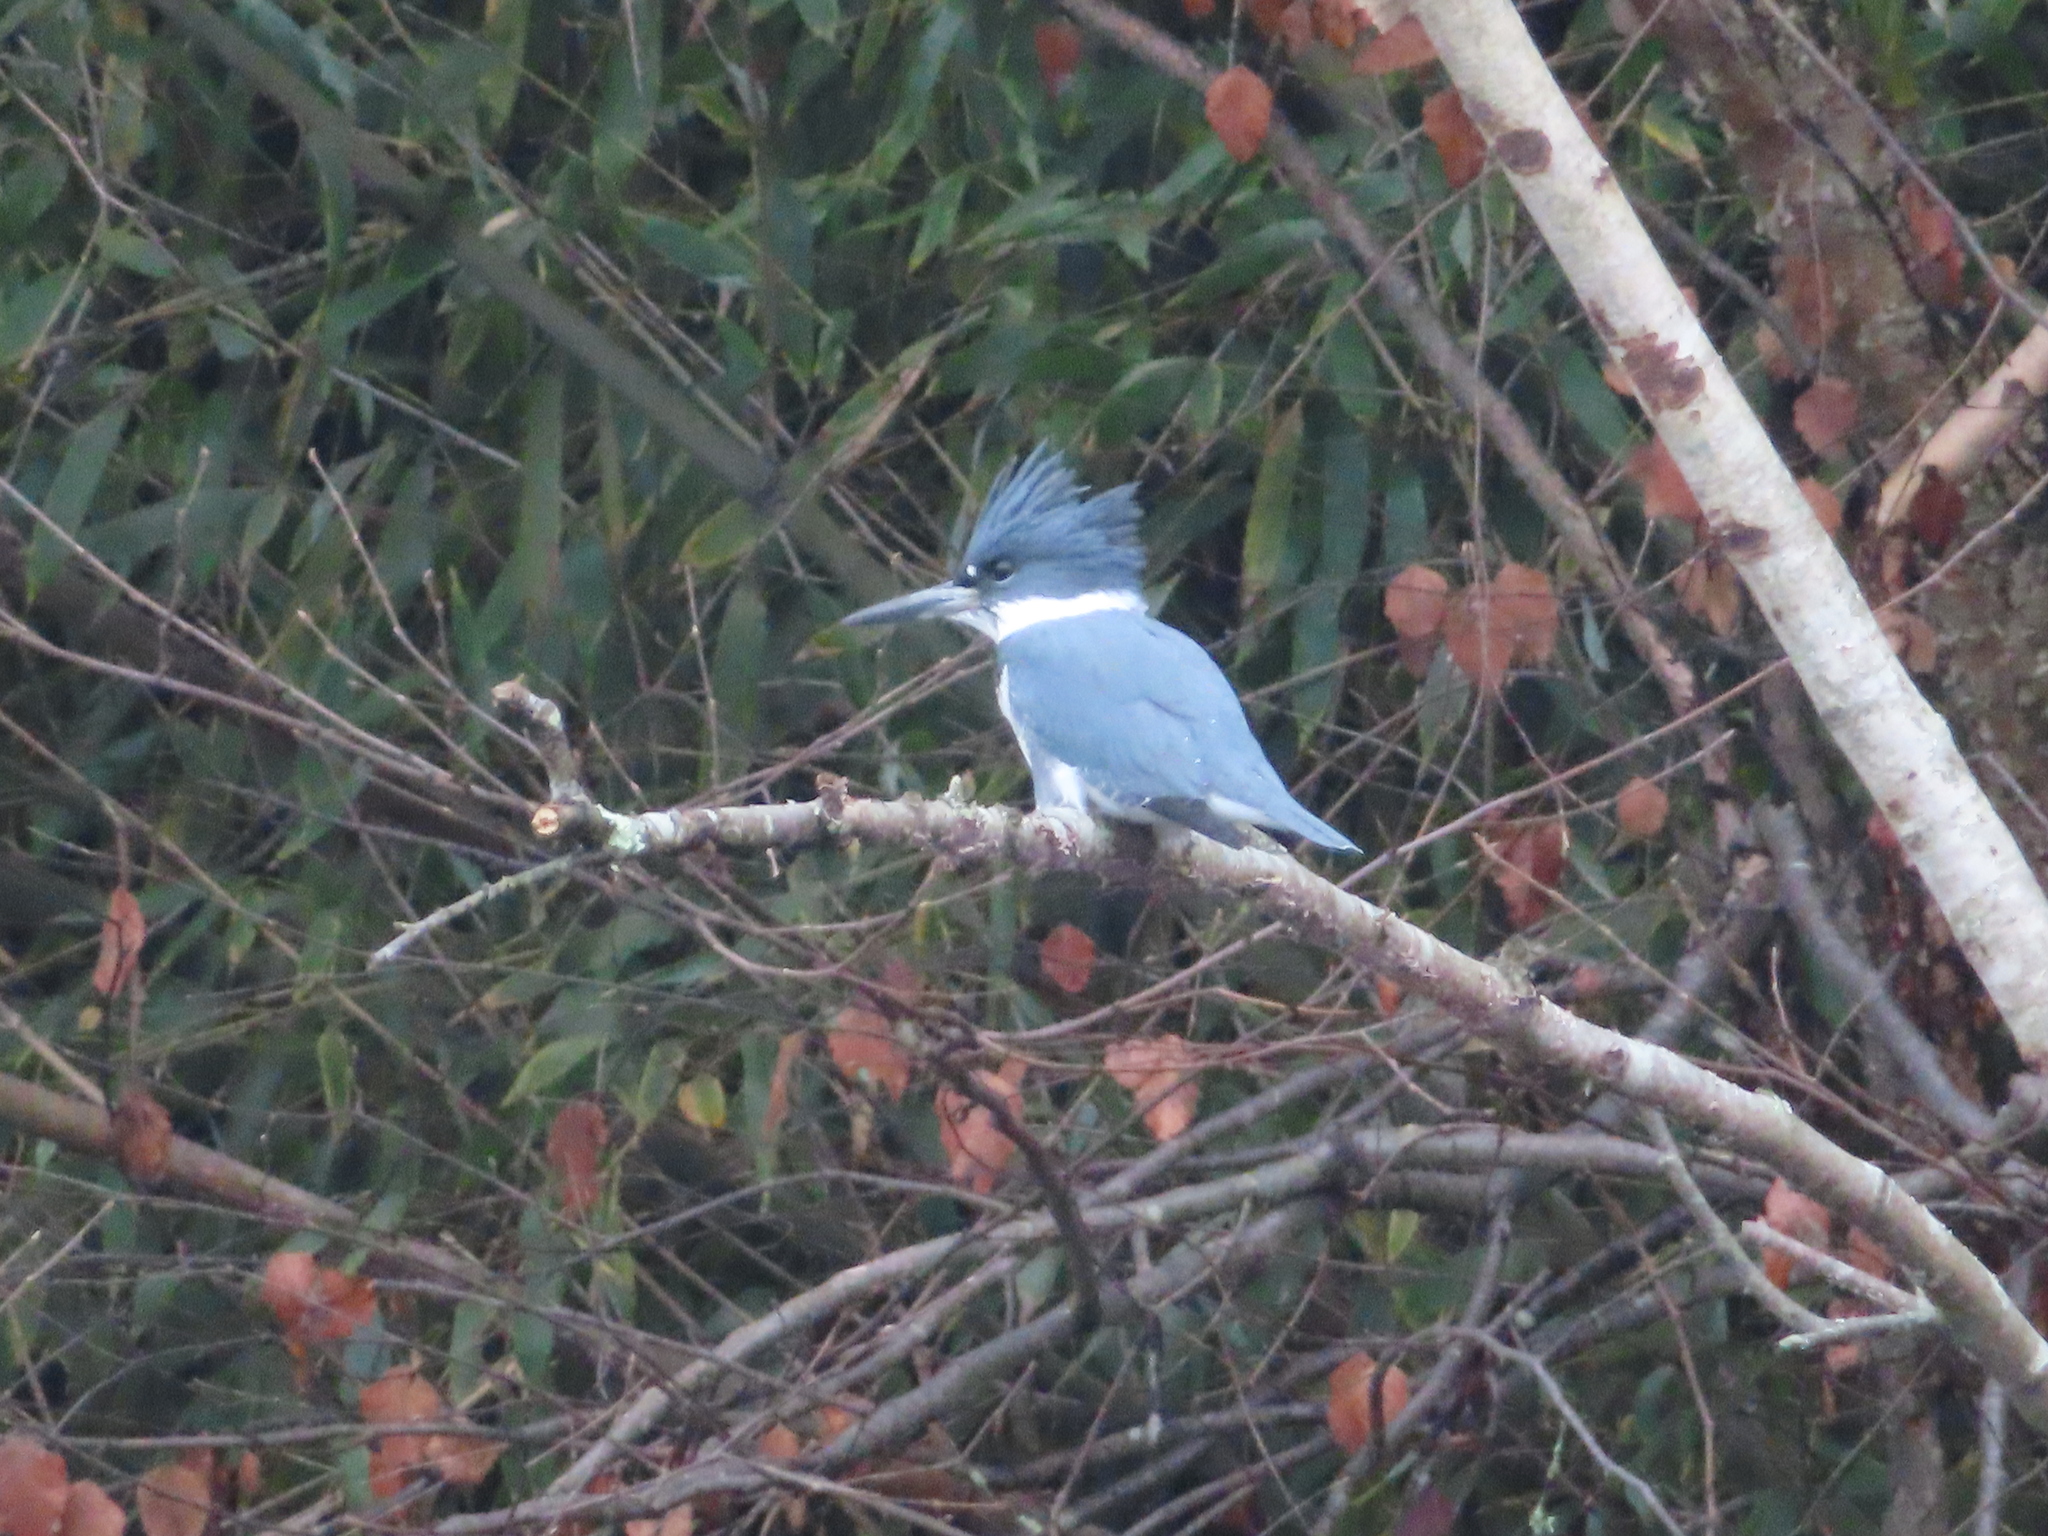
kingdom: Animalia
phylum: Chordata
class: Aves
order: Coraciiformes
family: Alcedinidae
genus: Megaceryle
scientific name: Megaceryle alcyon
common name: Belted kingfisher
